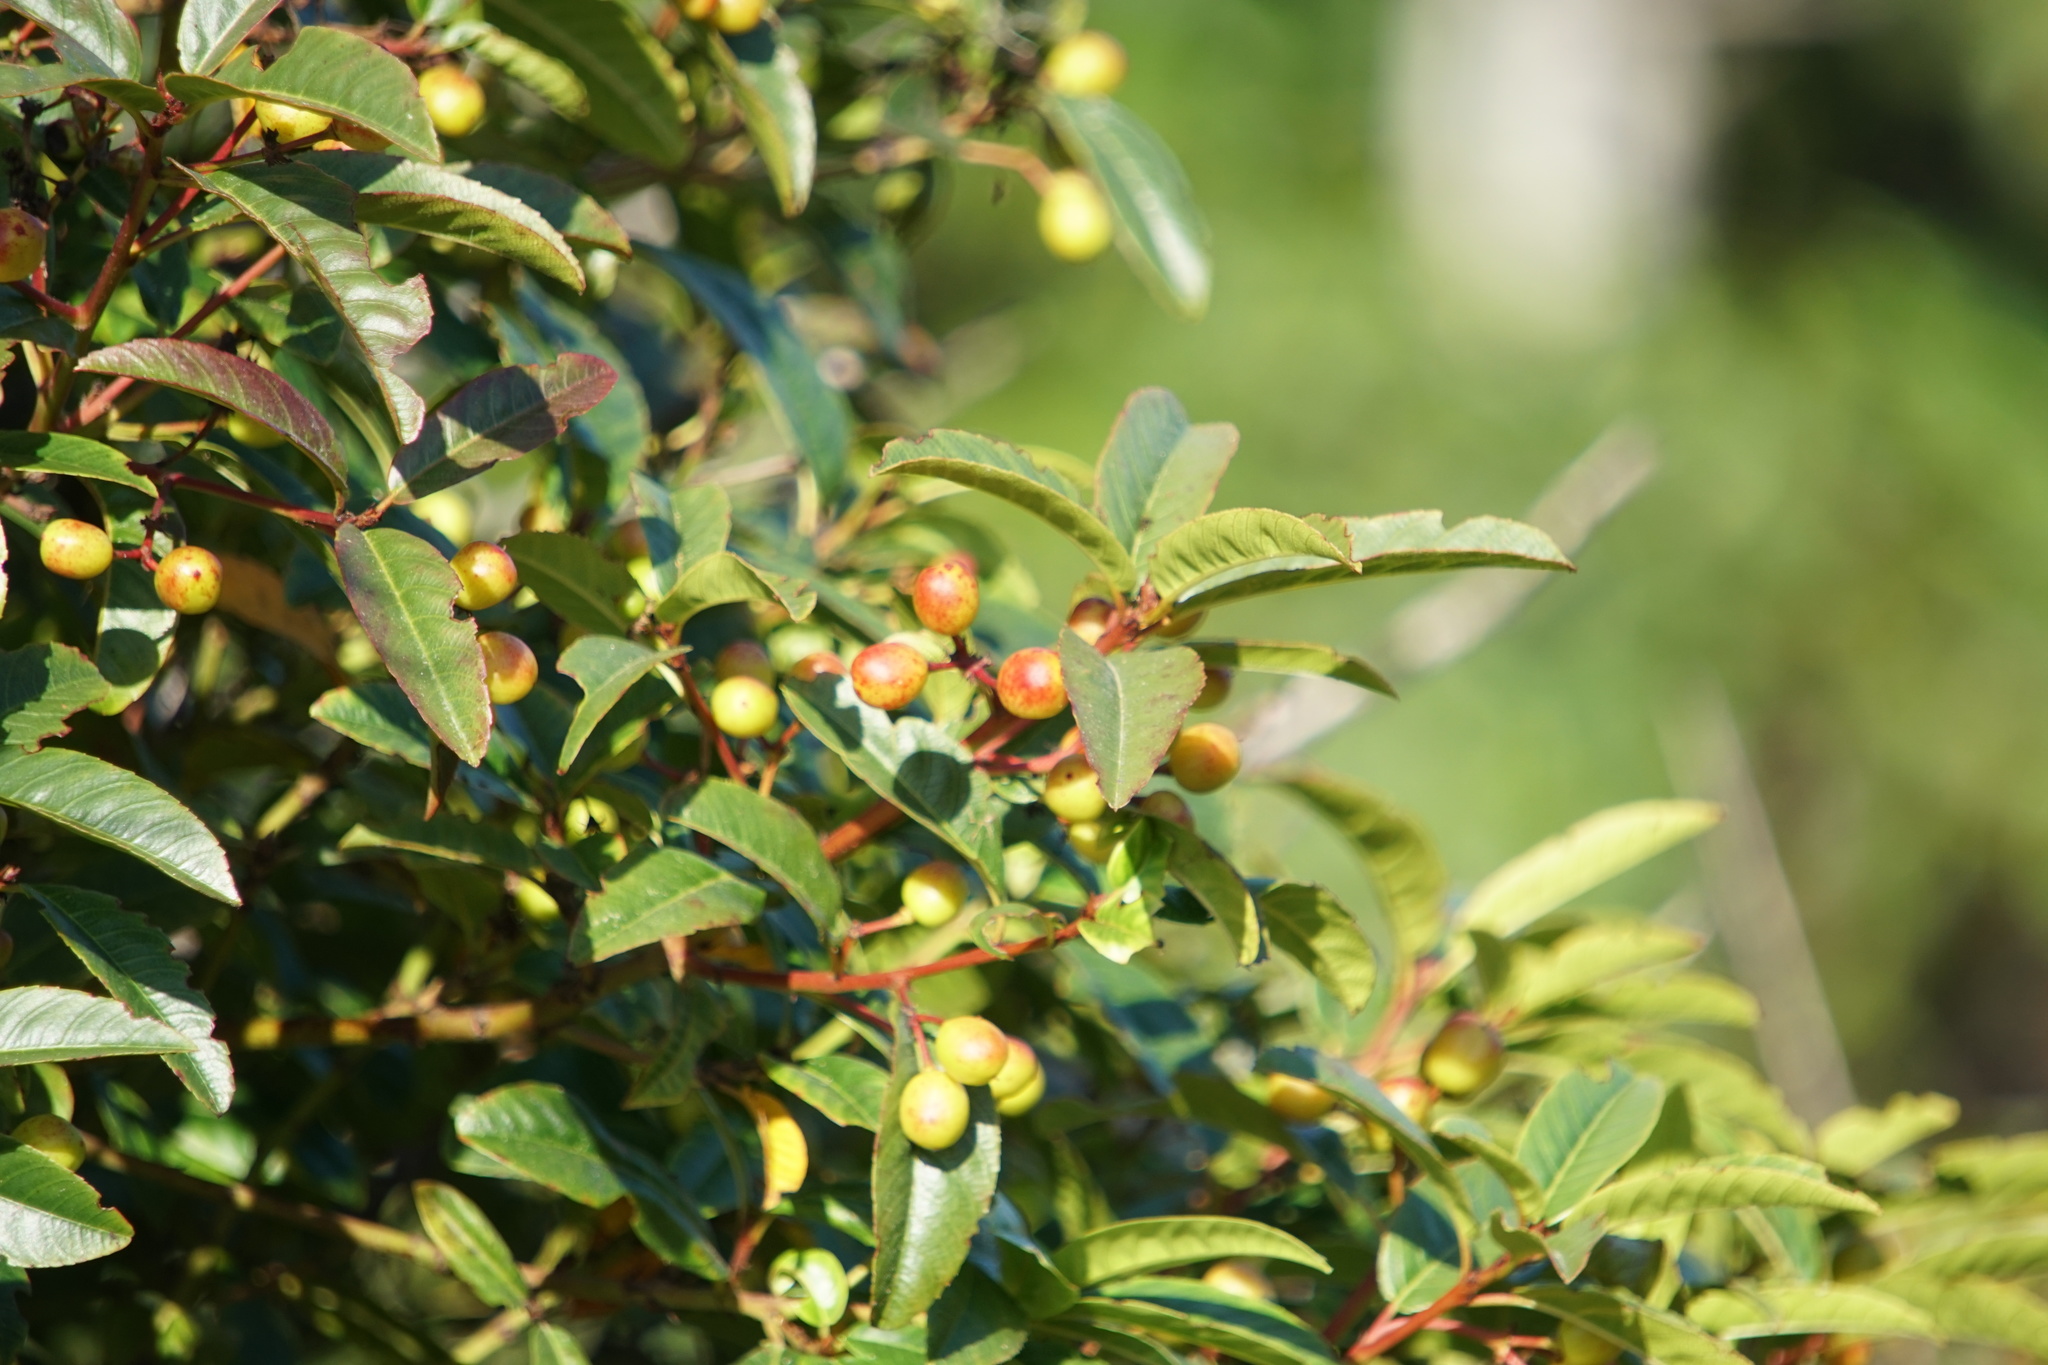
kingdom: Plantae
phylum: Tracheophyta
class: Magnoliopsida
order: Rosales
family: Rhamnaceae
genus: Frangula
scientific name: Frangula californica
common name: California buckthorn
